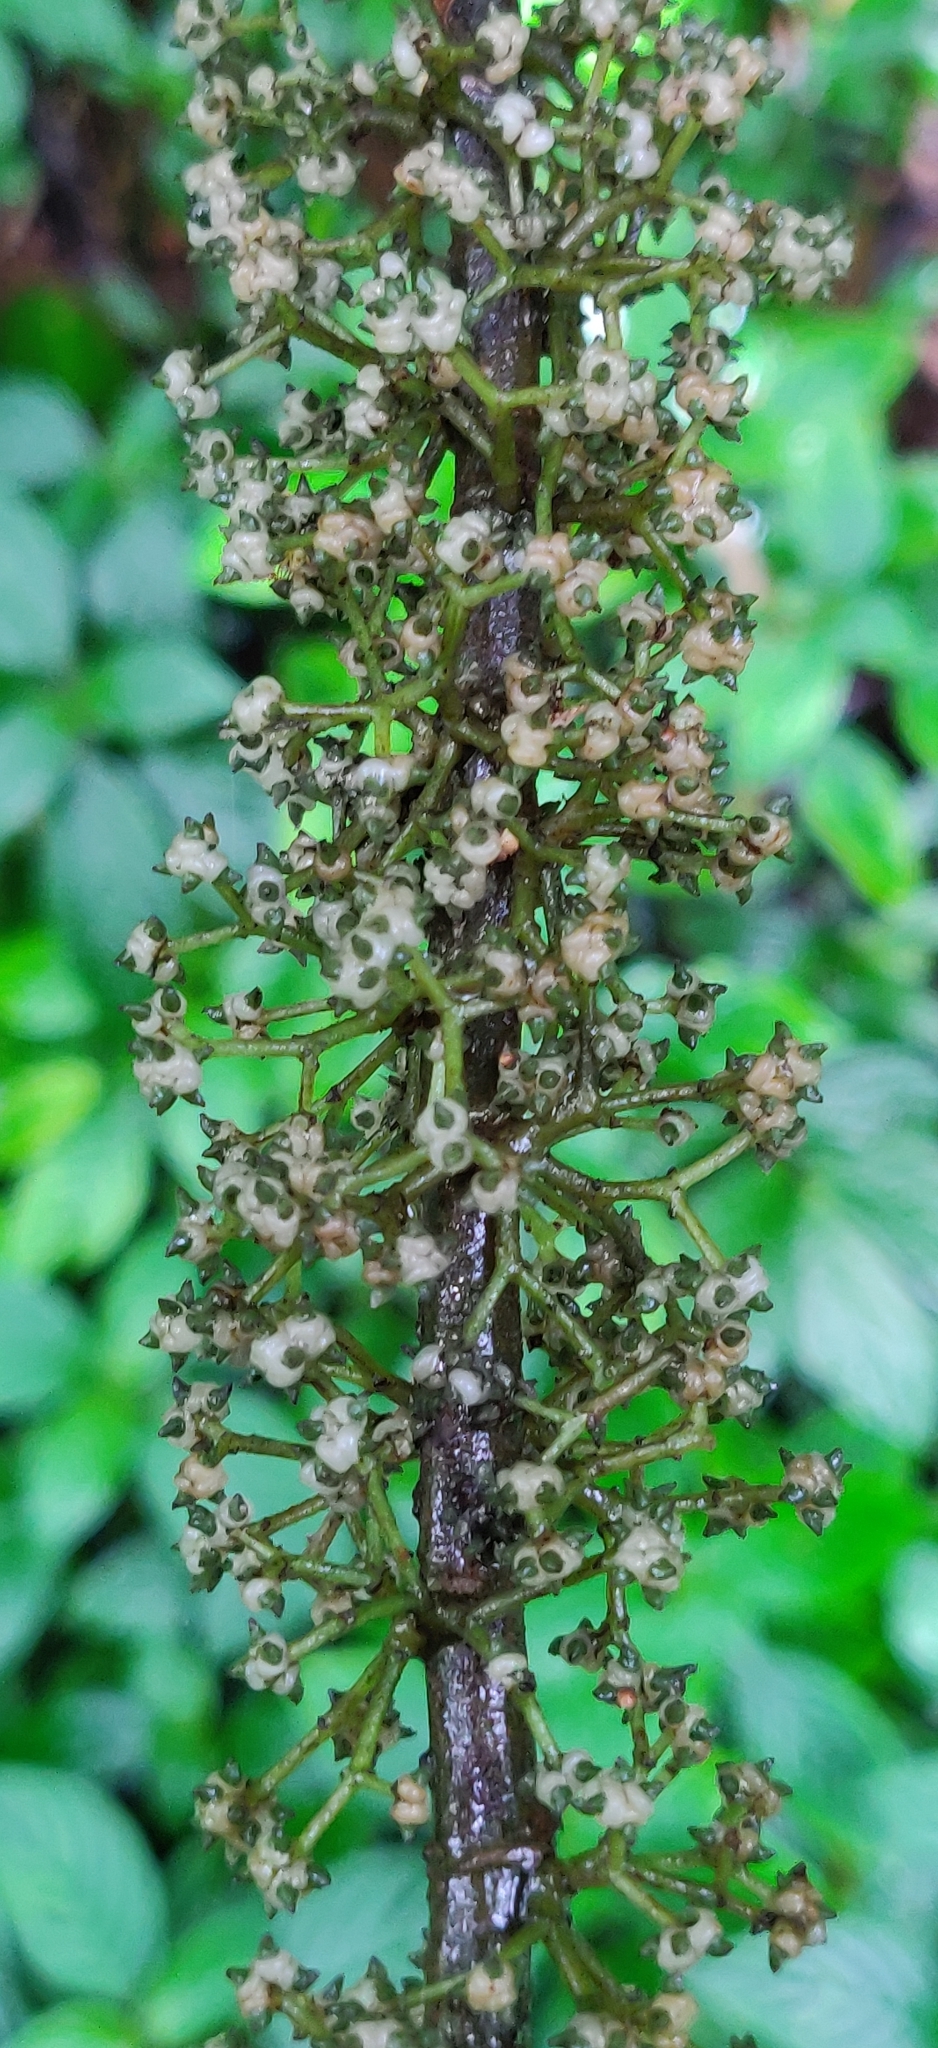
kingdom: Plantae
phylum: Tracheophyta
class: Magnoliopsida
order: Rosales
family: Urticaceae
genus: Oreocnide
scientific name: Oreocnide integrifolia
